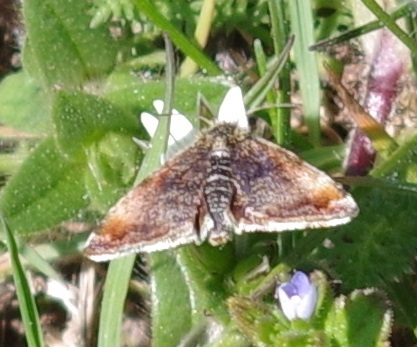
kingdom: Animalia
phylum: Arthropoda
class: Insecta
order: Lepidoptera
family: Noctuidae
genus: Panemeria
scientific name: Panemeria tenebrata
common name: Small yellow underwing
